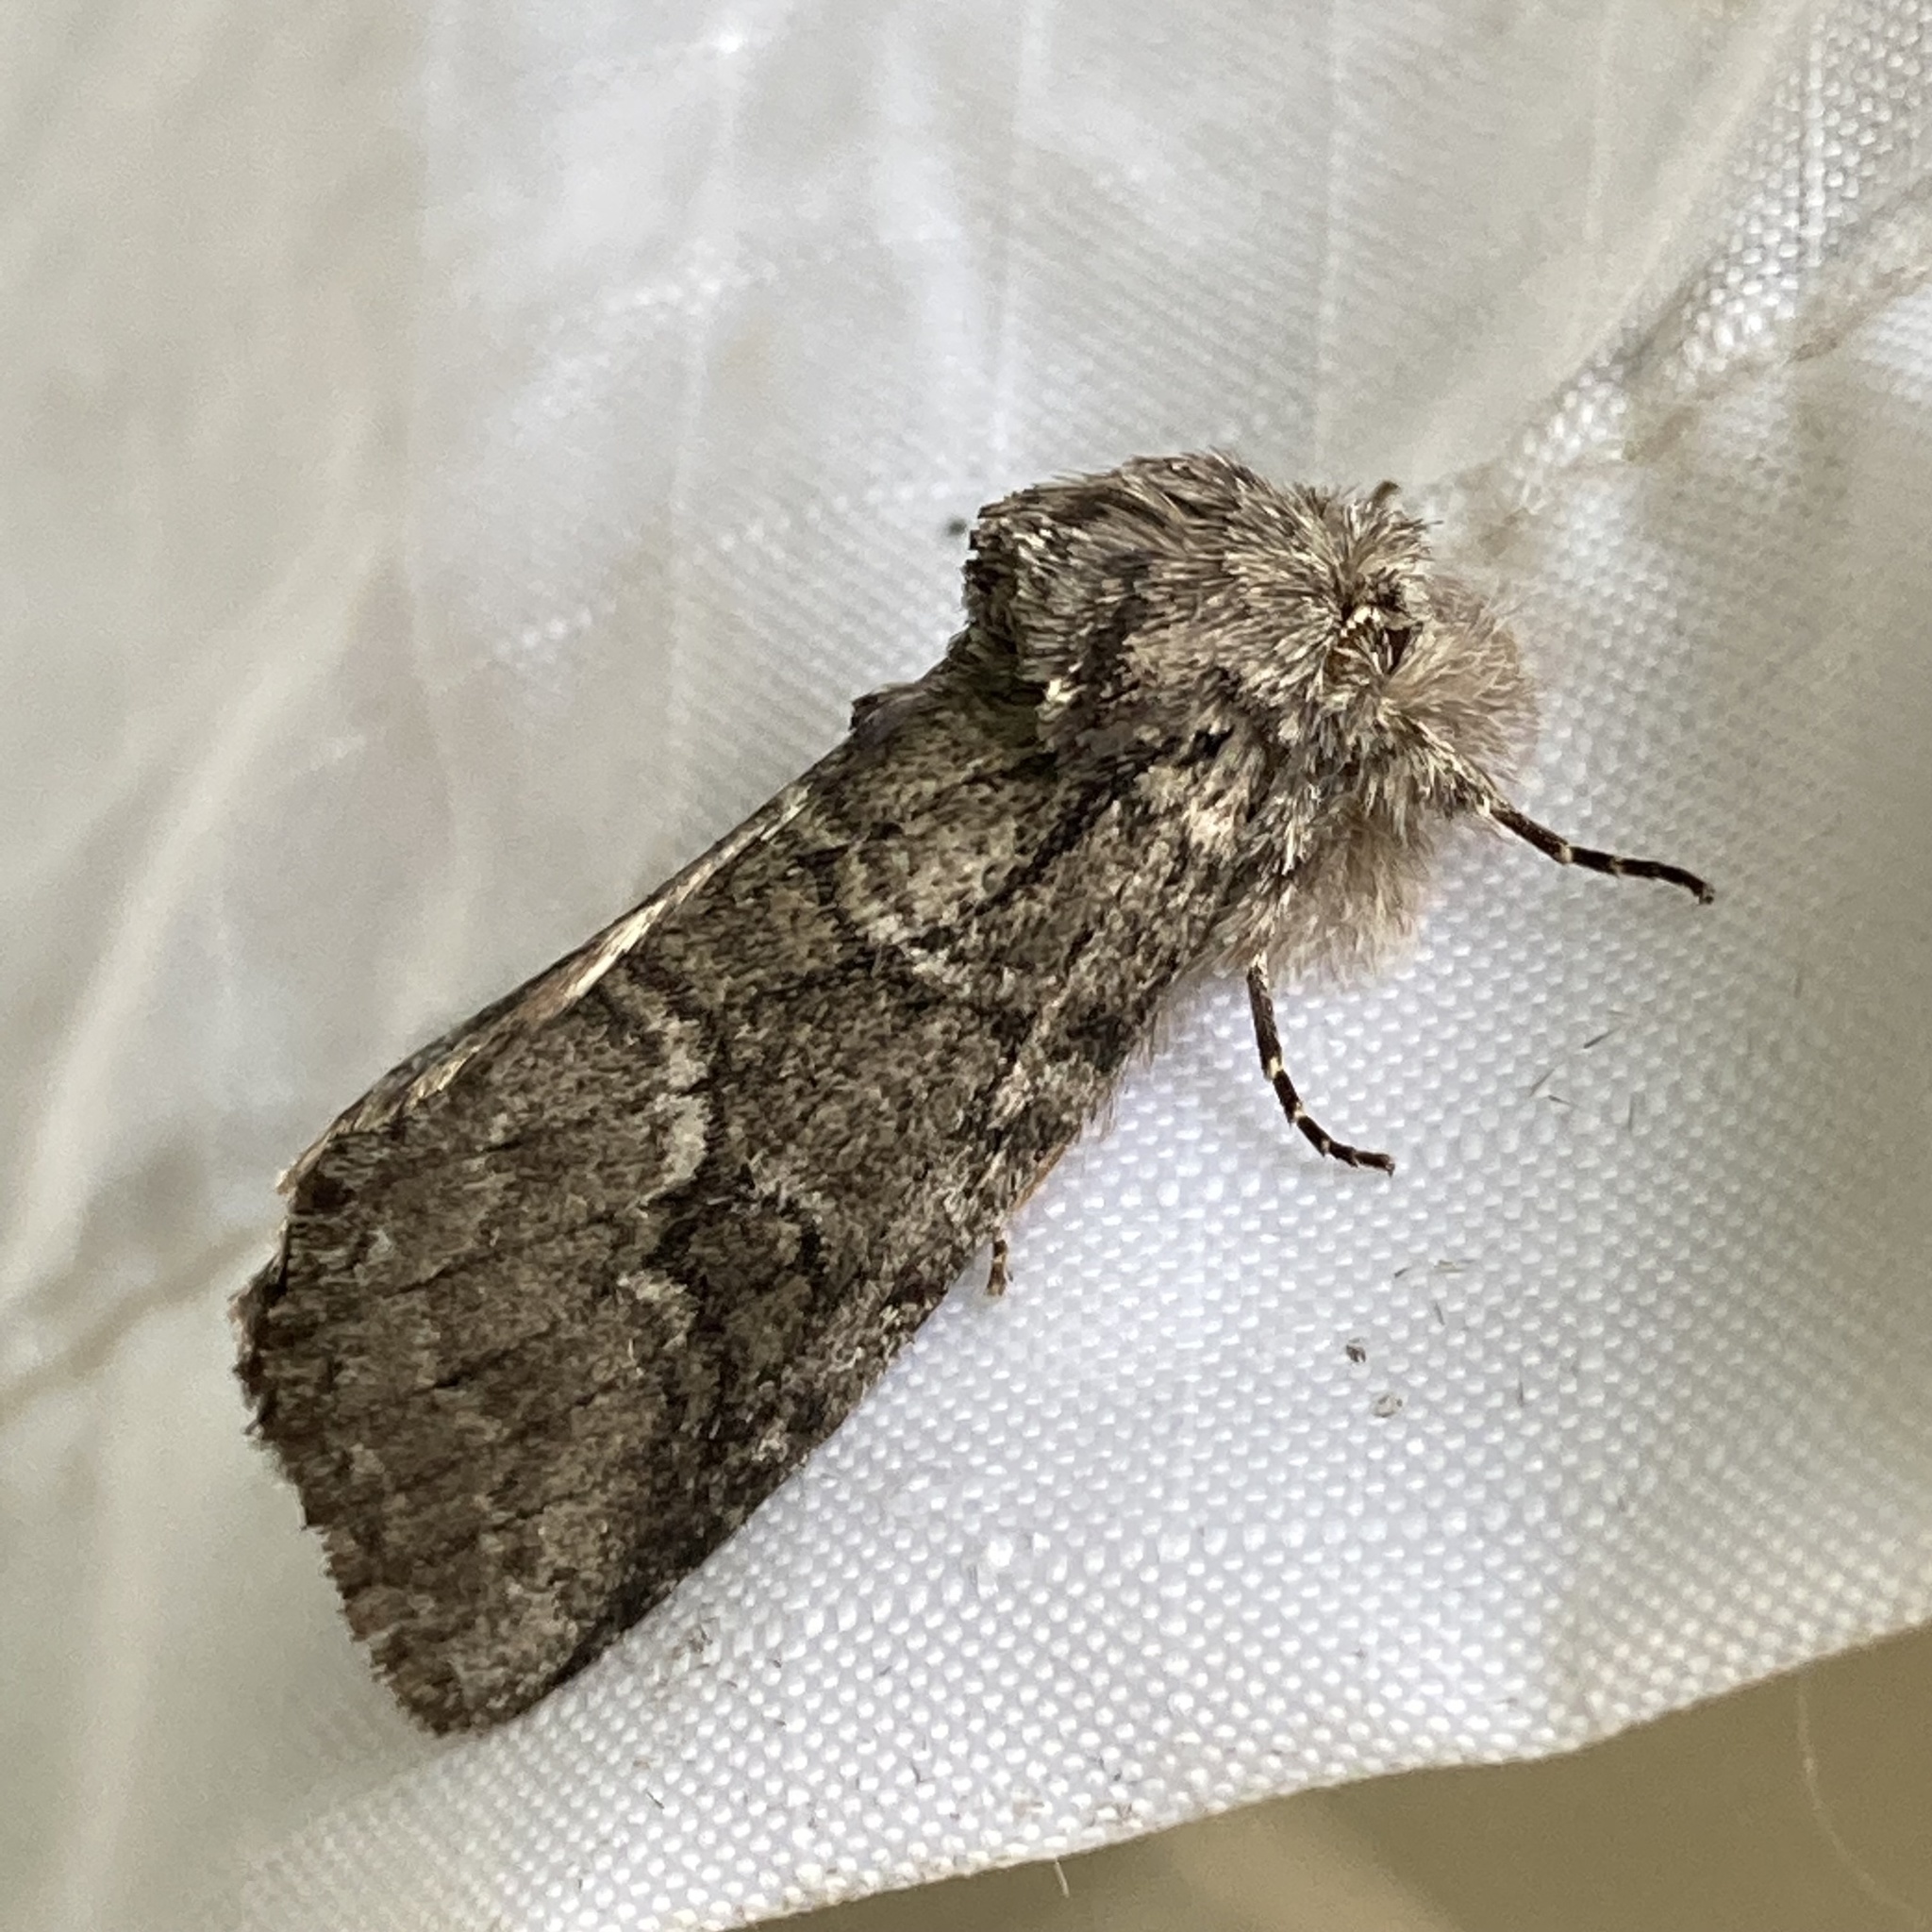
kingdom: Animalia
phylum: Arthropoda
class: Insecta
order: Lepidoptera
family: Notodontidae
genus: Lochmaeus
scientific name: Lochmaeus bilineata
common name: Double-lined prominent
